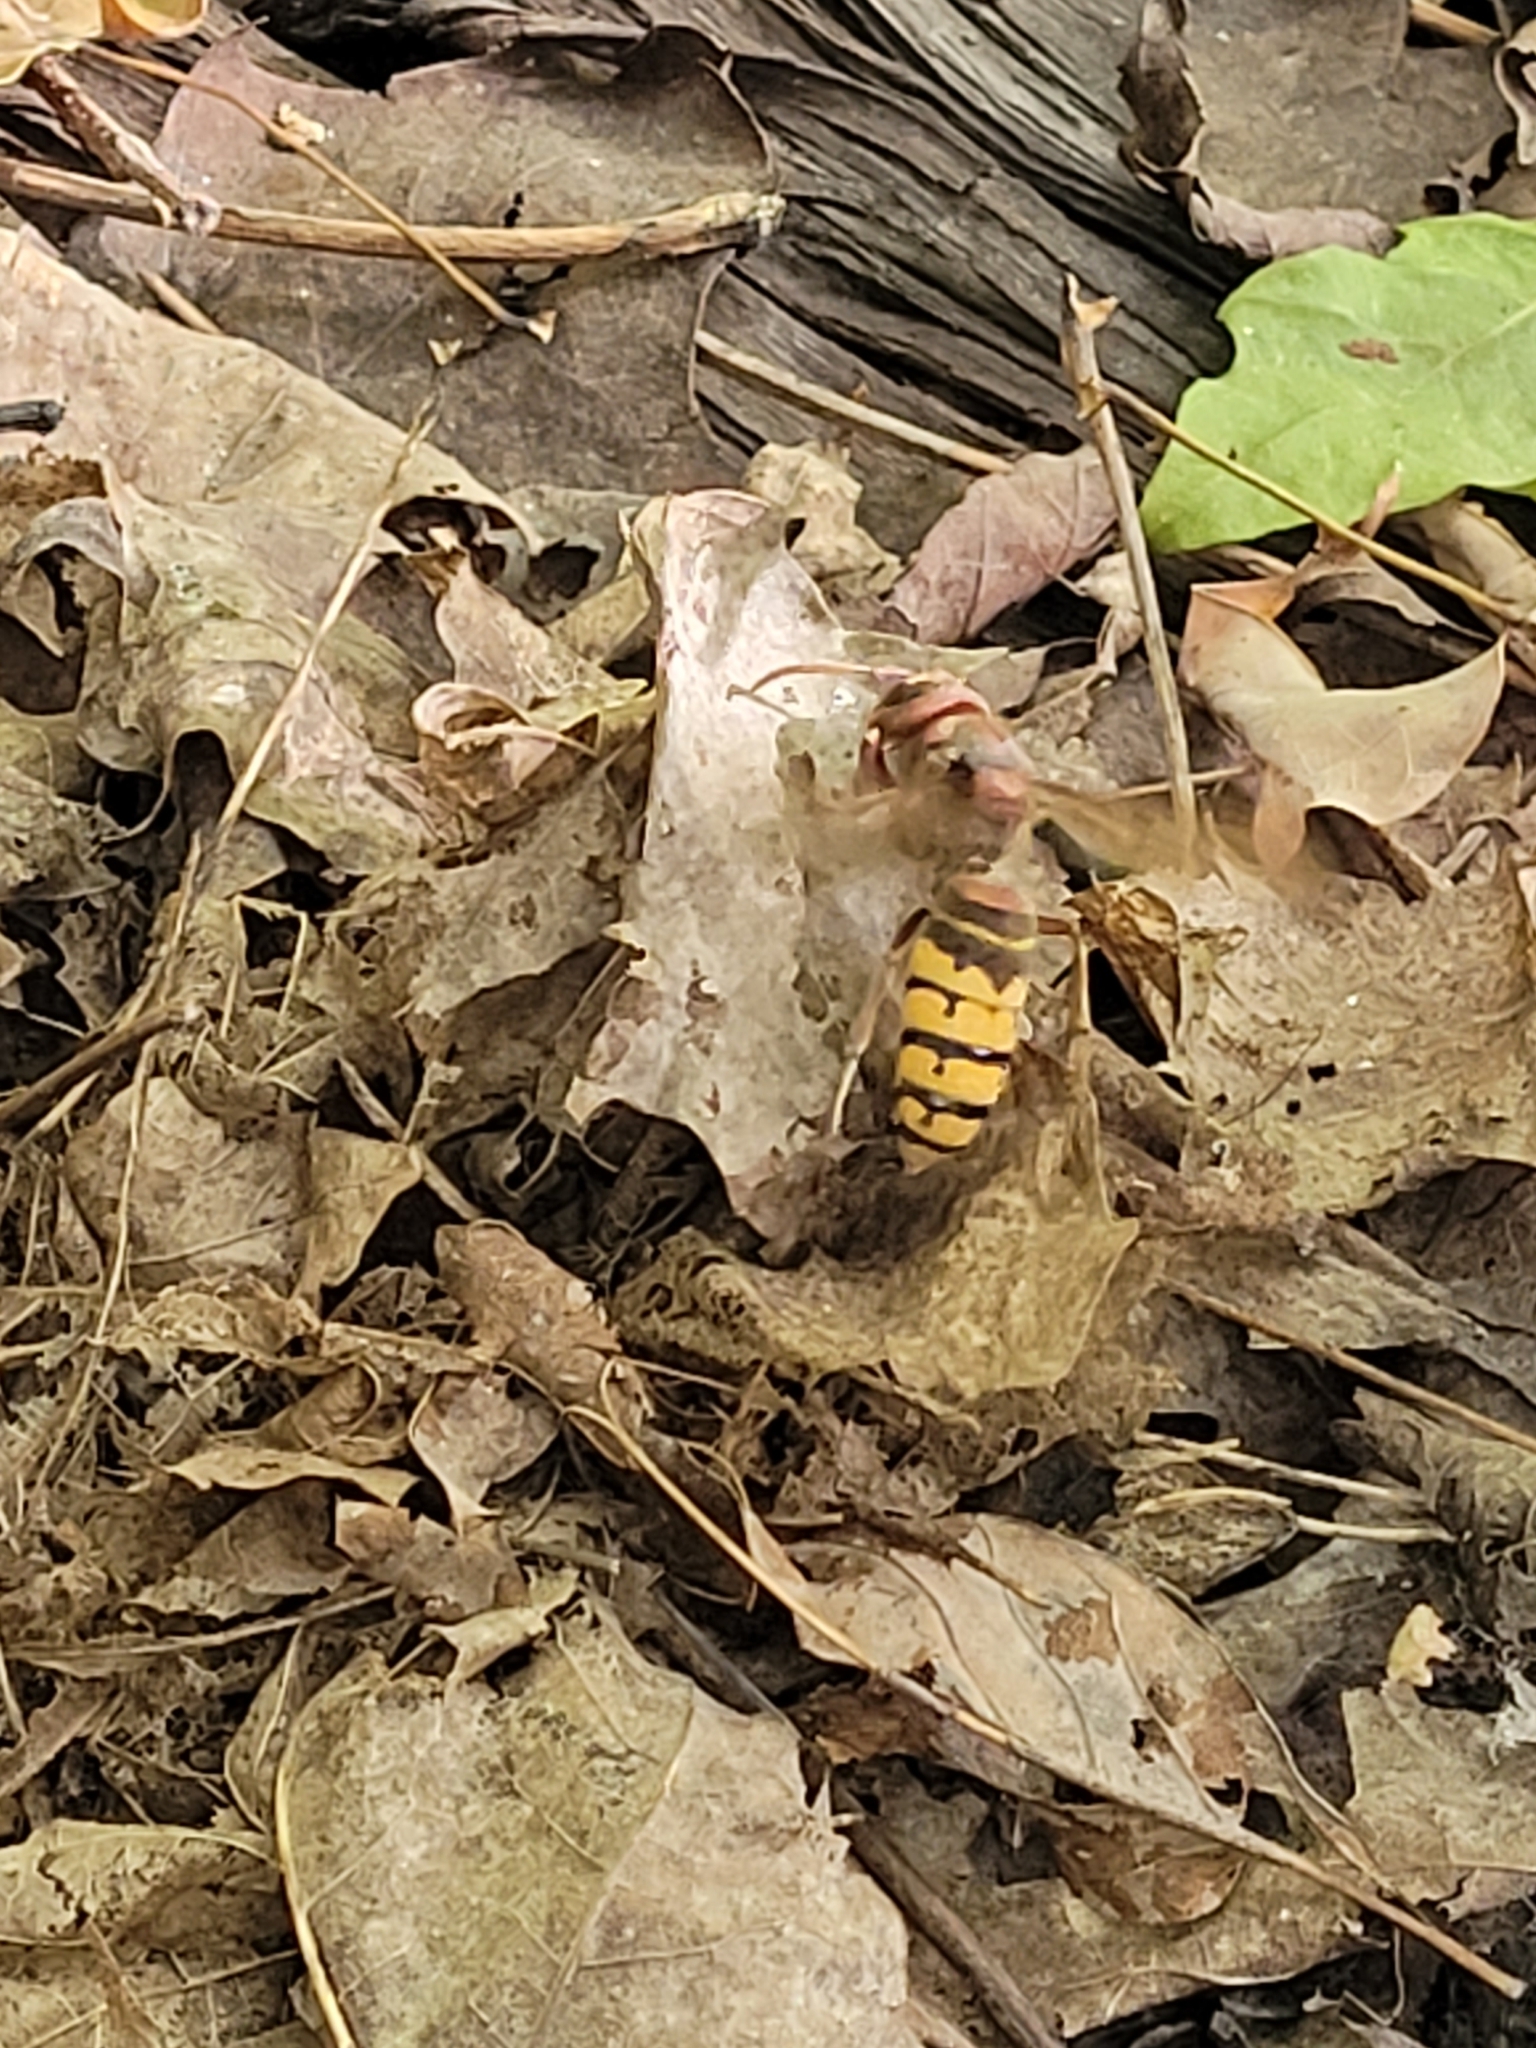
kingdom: Animalia
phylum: Arthropoda
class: Insecta
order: Hymenoptera
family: Vespidae
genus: Vespa
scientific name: Vespa crabro
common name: Hornet
